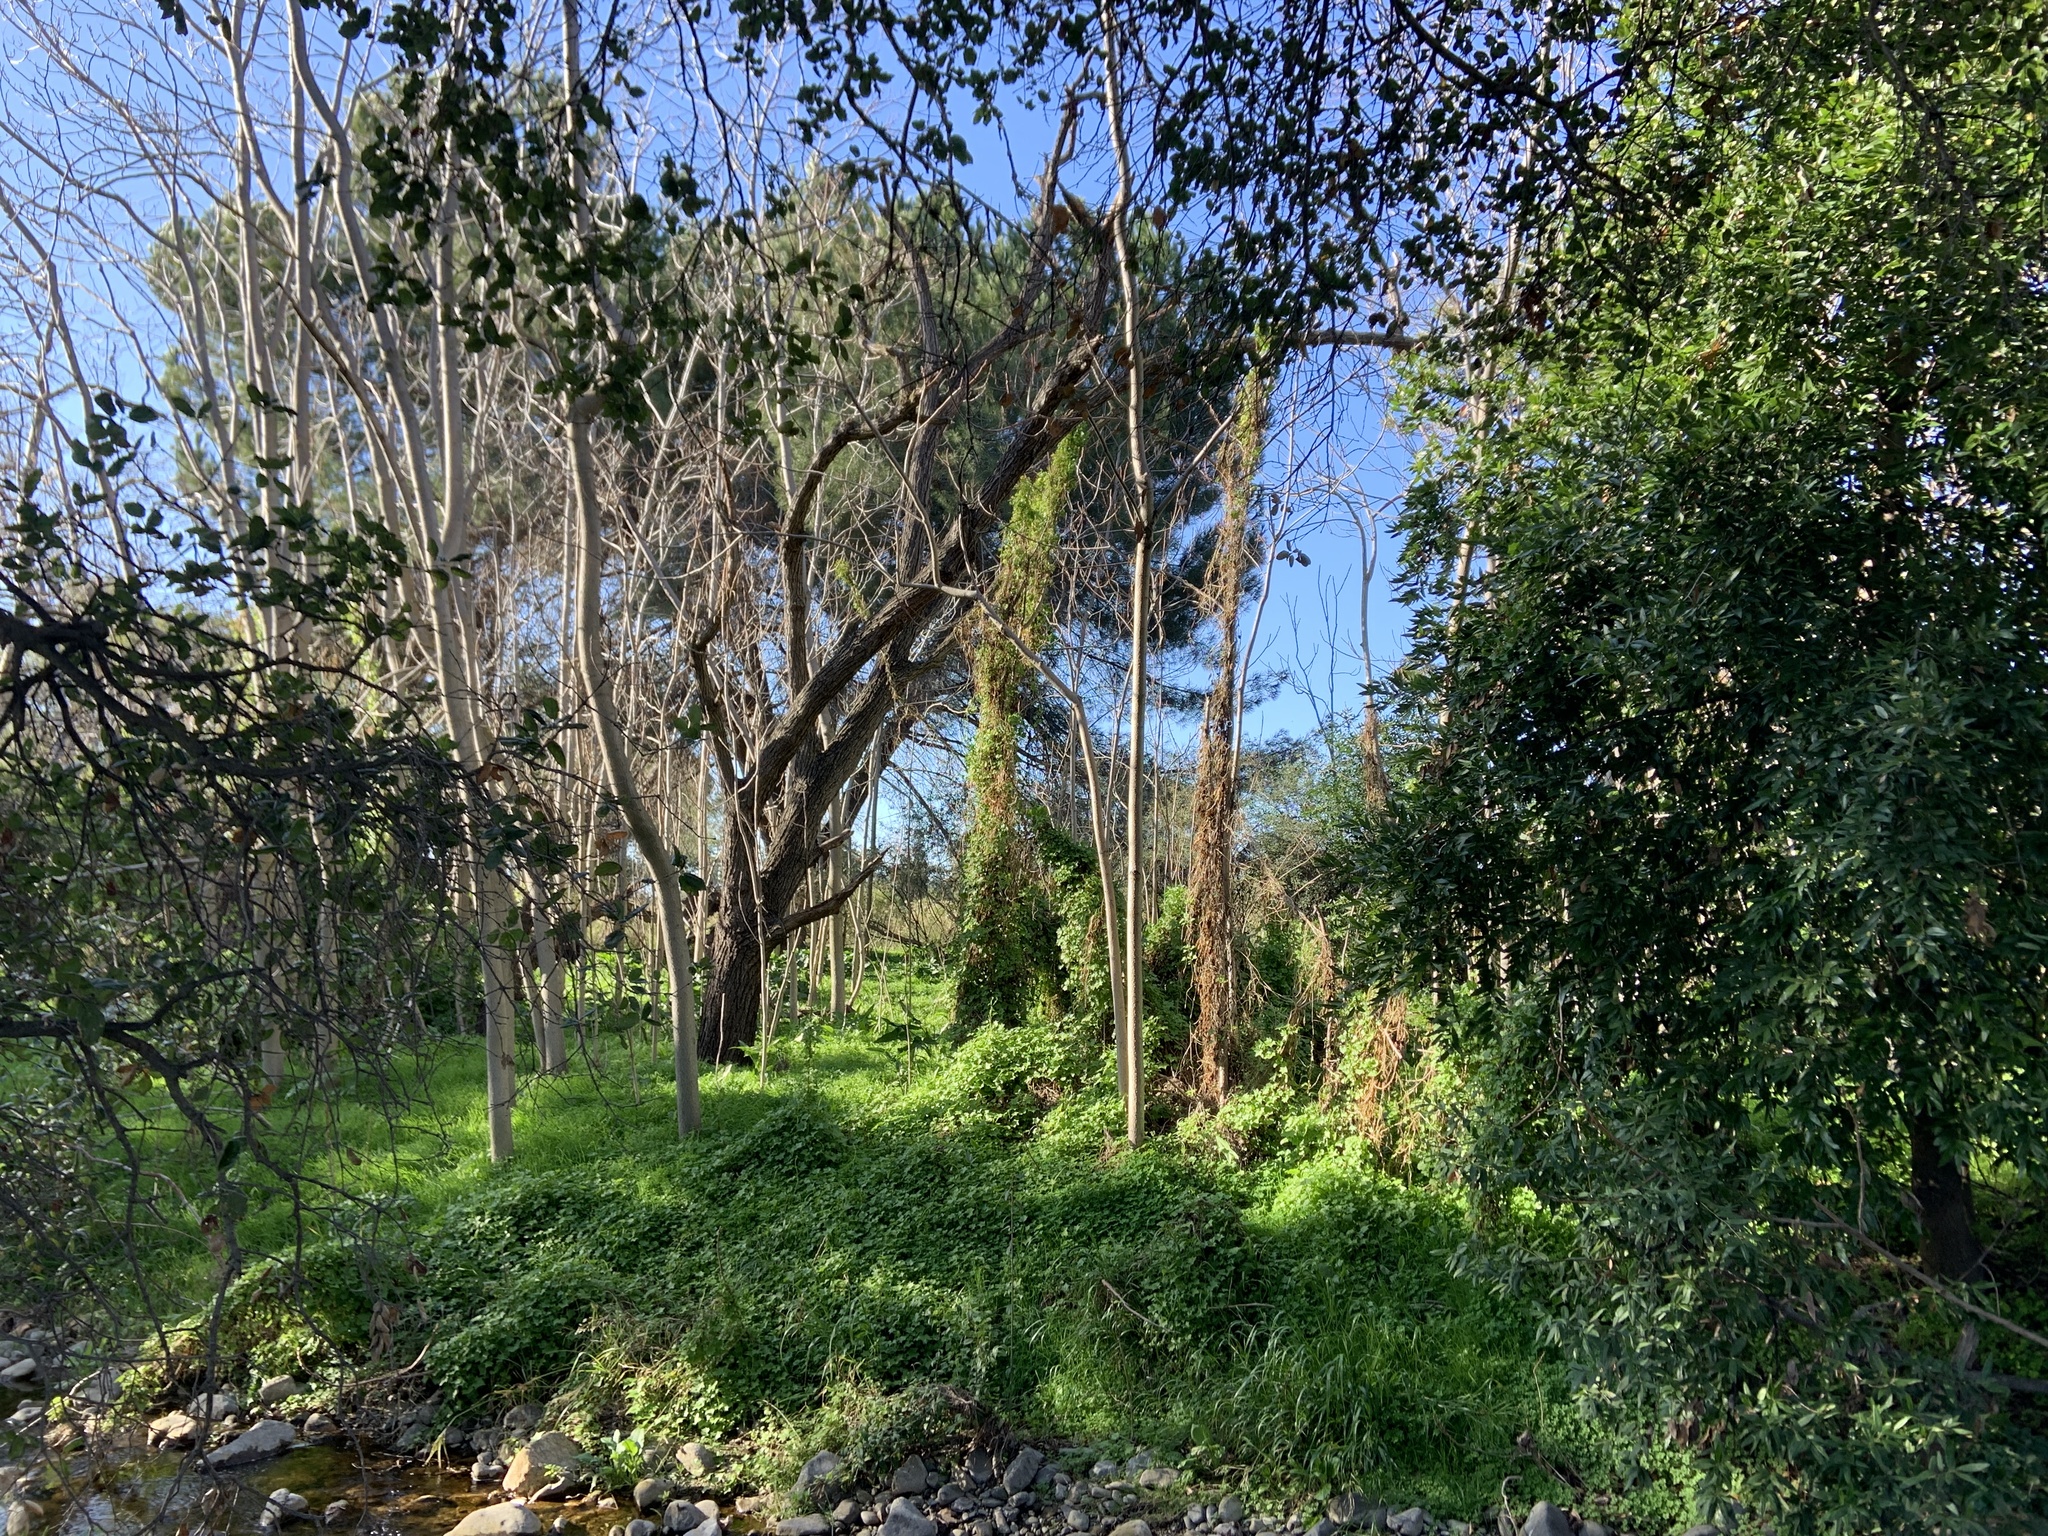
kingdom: Plantae
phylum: Tracheophyta
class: Magnoliopsida
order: Asterales
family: Asteraceae
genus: Delairea
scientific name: Delairea odorata
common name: Cape-ivy
